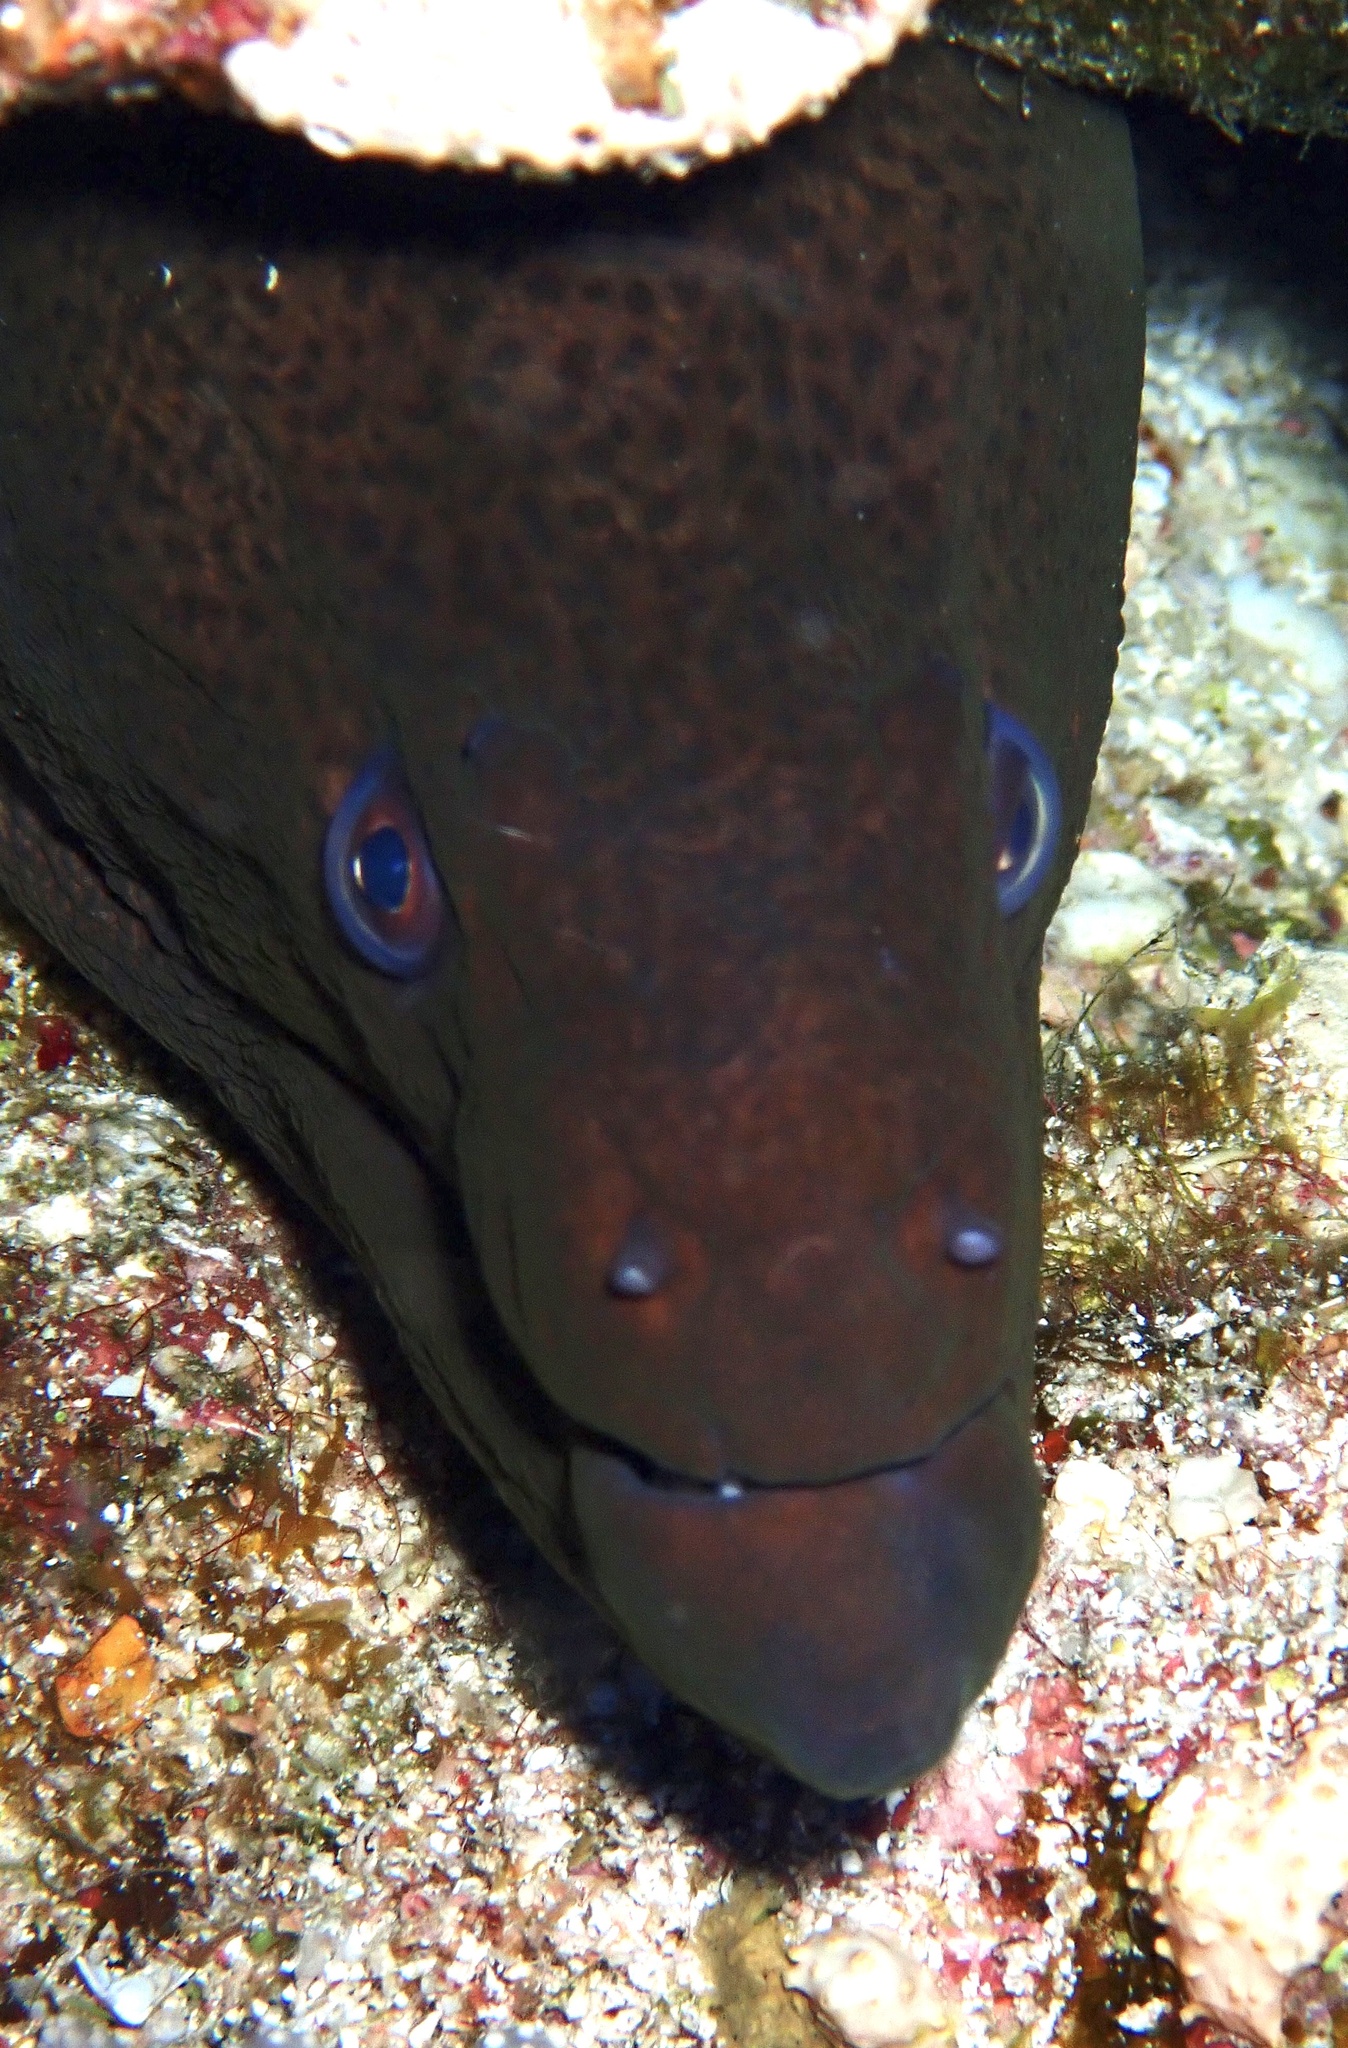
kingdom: Animalia
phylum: Chordata
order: Anguilliformes
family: Muraenidae
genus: Gymnothorax
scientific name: Gymnothorax javanicus
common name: Giant moray
